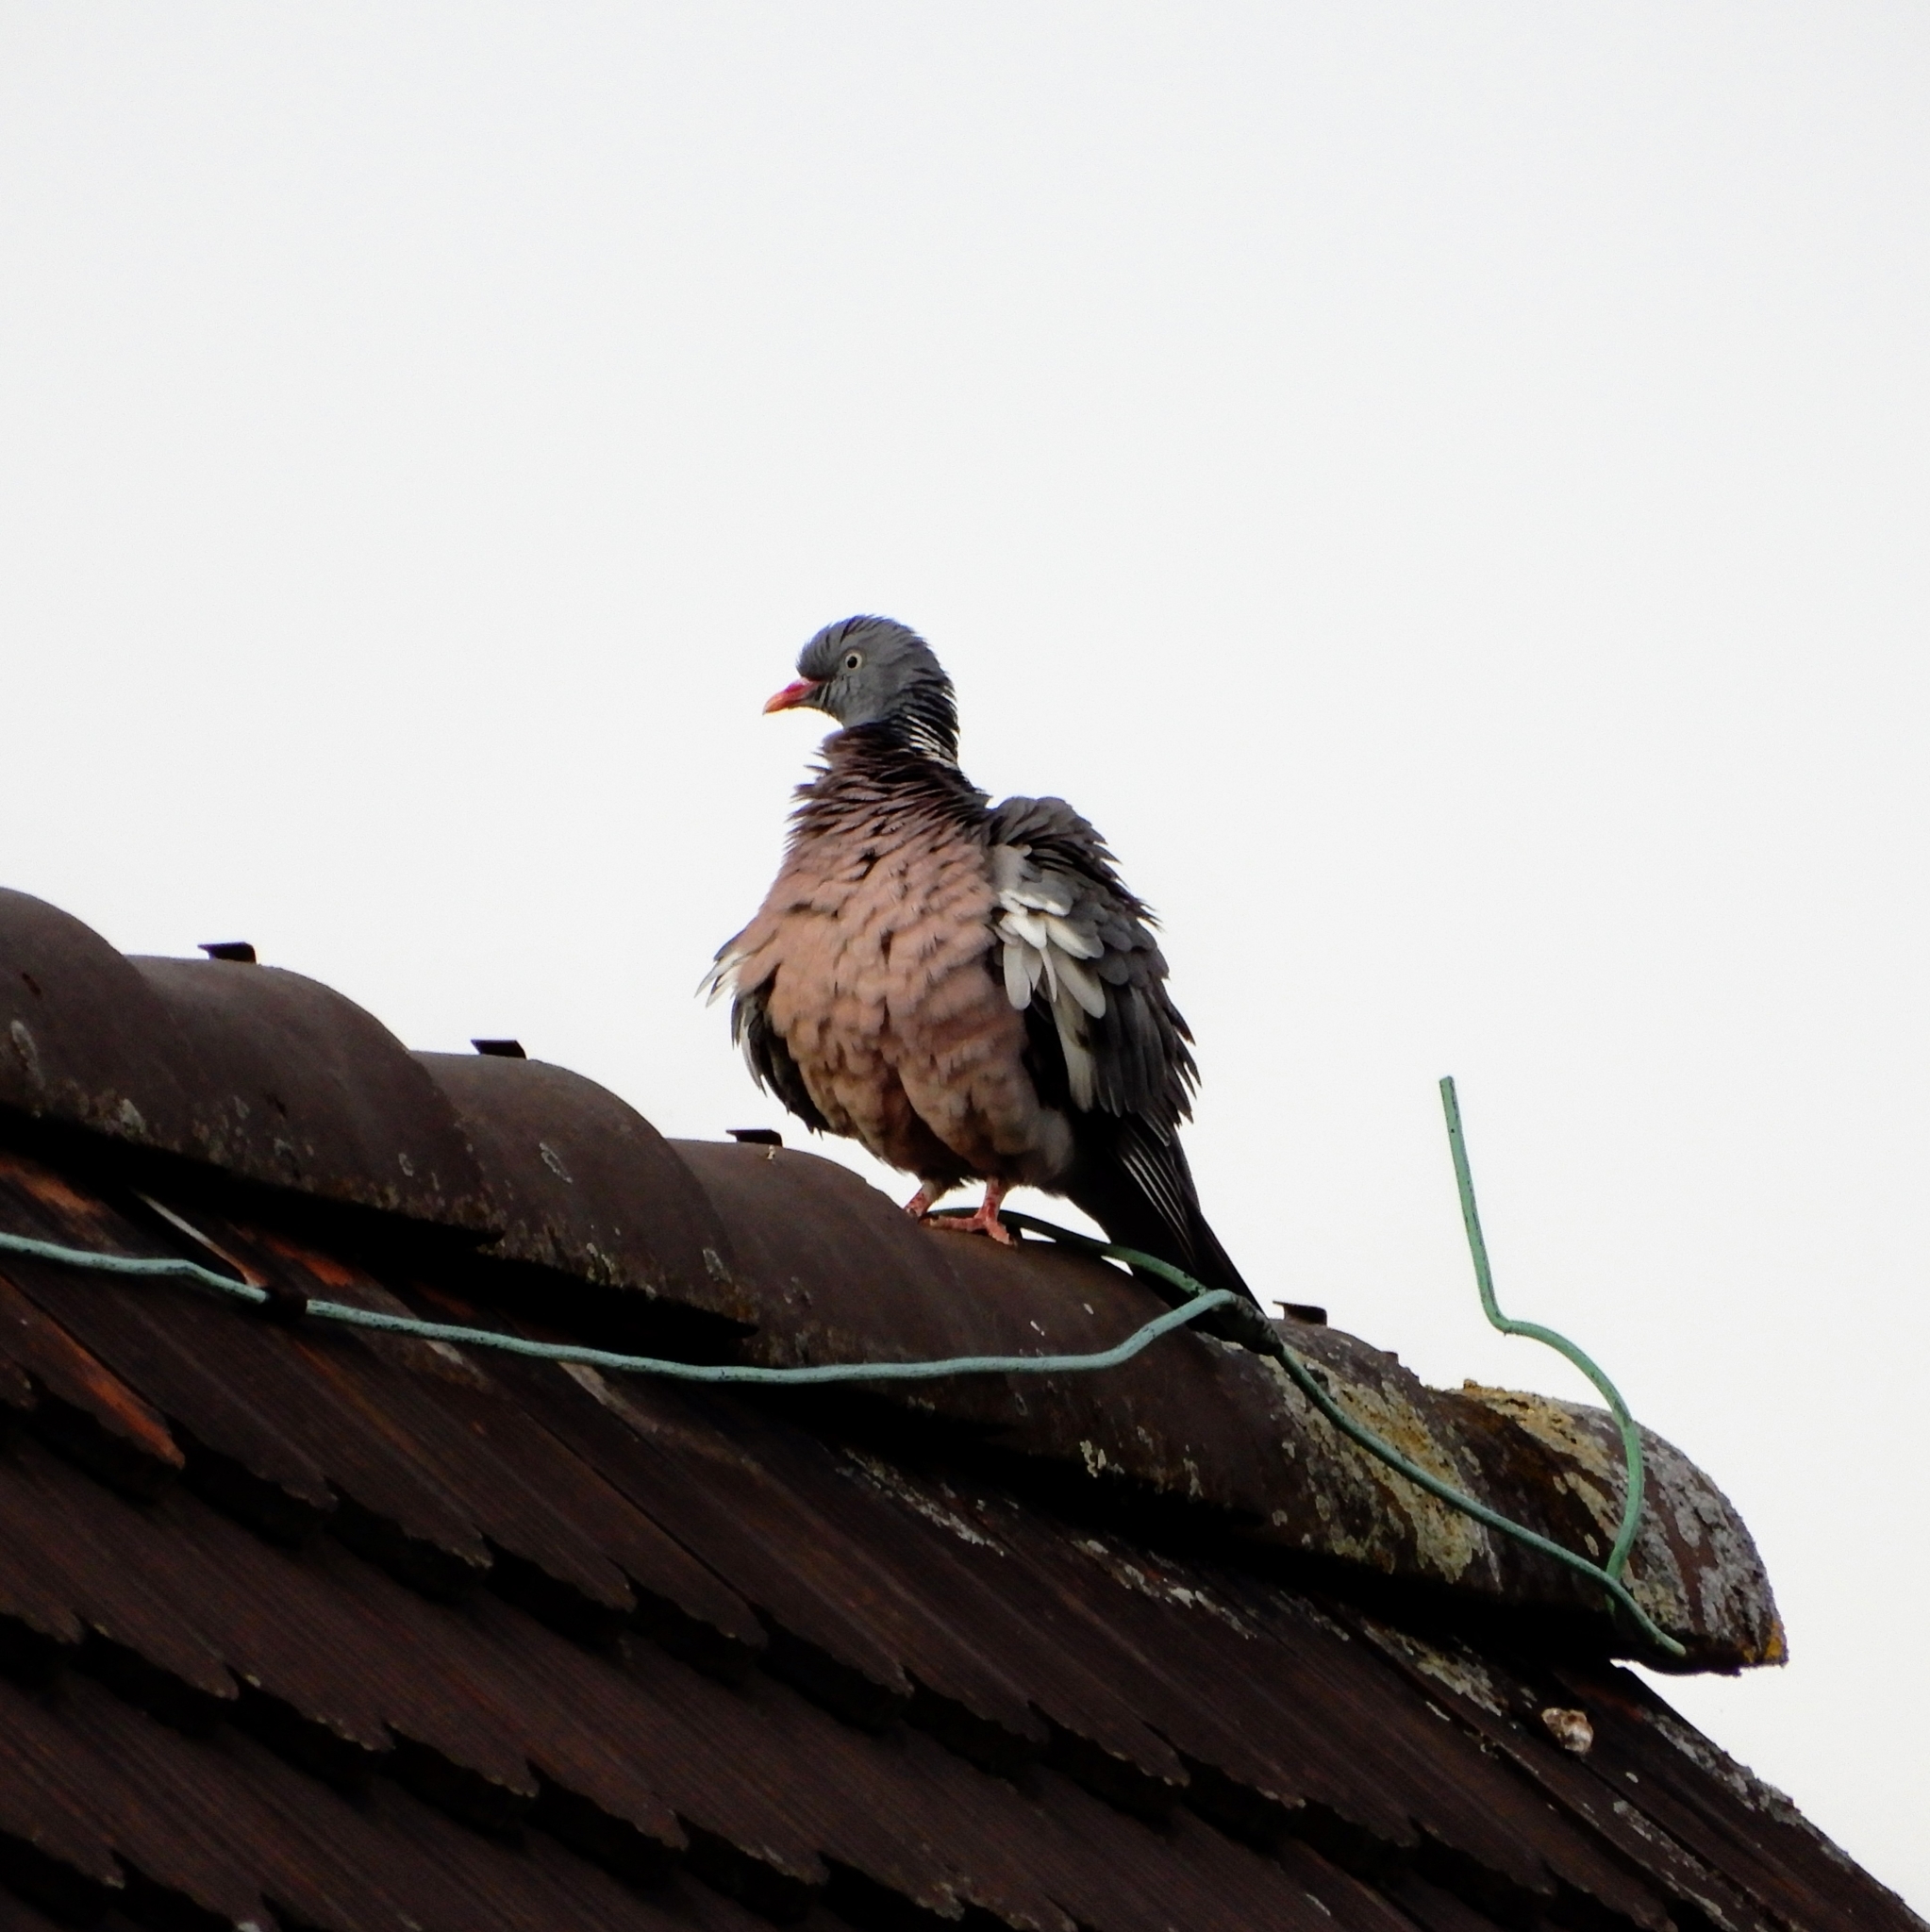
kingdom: Animalia
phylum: Chordata
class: Aves
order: Columbiformes
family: Columbidae
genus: Columba
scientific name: Columba palumbus
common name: Common wood pigeon
